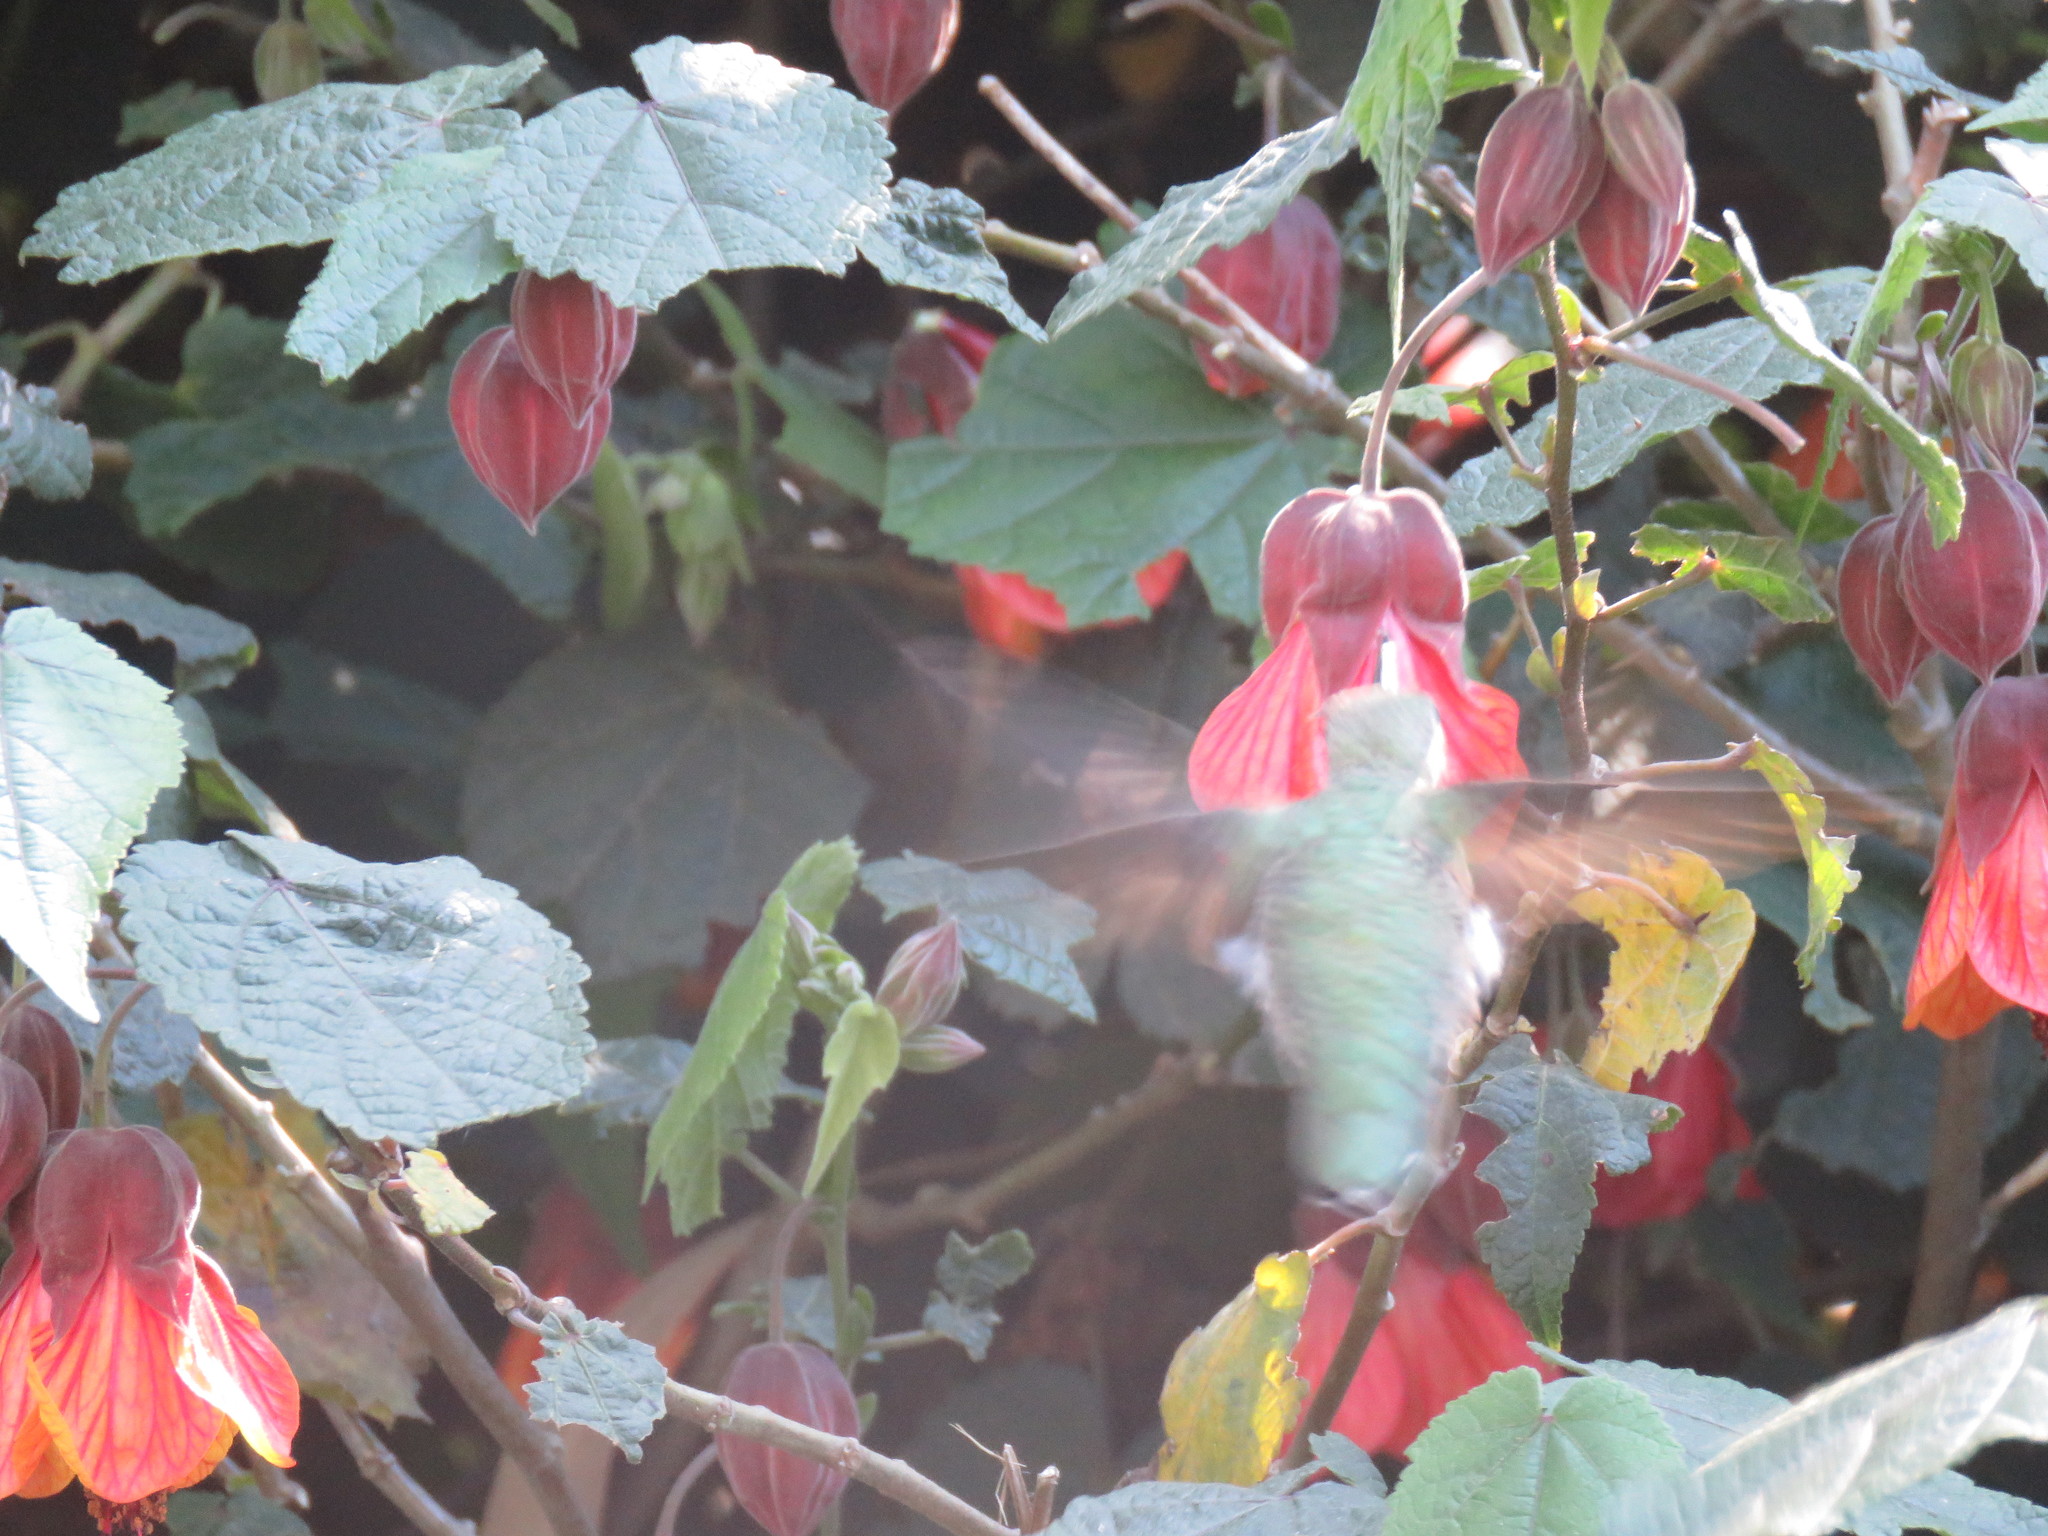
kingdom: Animalia
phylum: Chordata
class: Aves
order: Apodiformes
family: Trochilidae
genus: Calypte
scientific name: Calypte anna
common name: Anna's hummingbird
